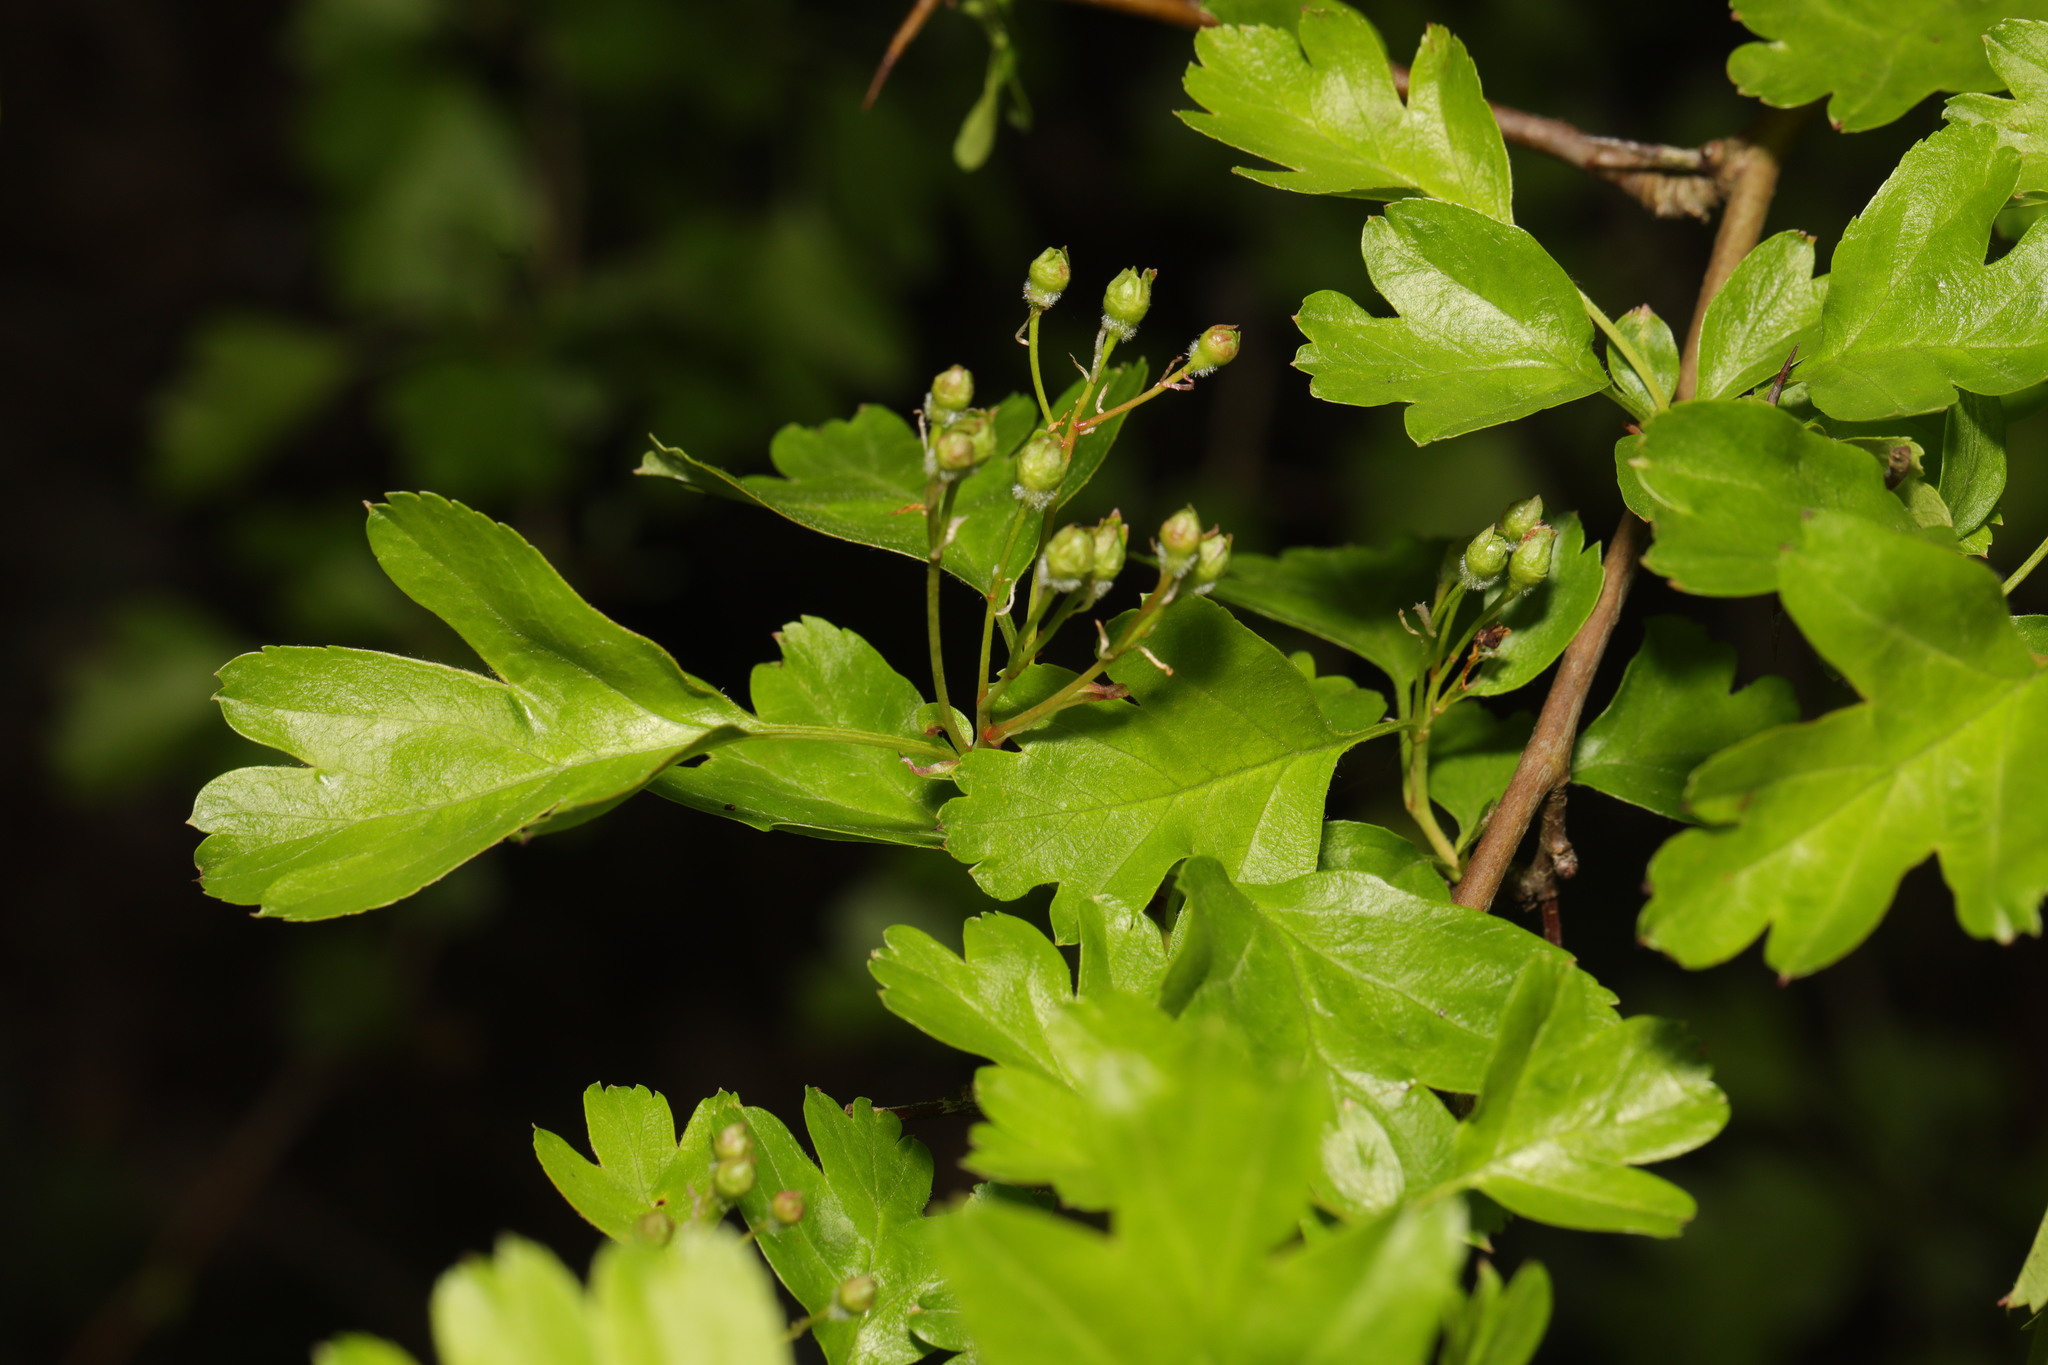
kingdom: Plantae
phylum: Tracheophyta
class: Magnoliopsida
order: Rosales
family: Rosaceae
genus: Crataegus
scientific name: Crataegus monogyna
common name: Hawthorn
